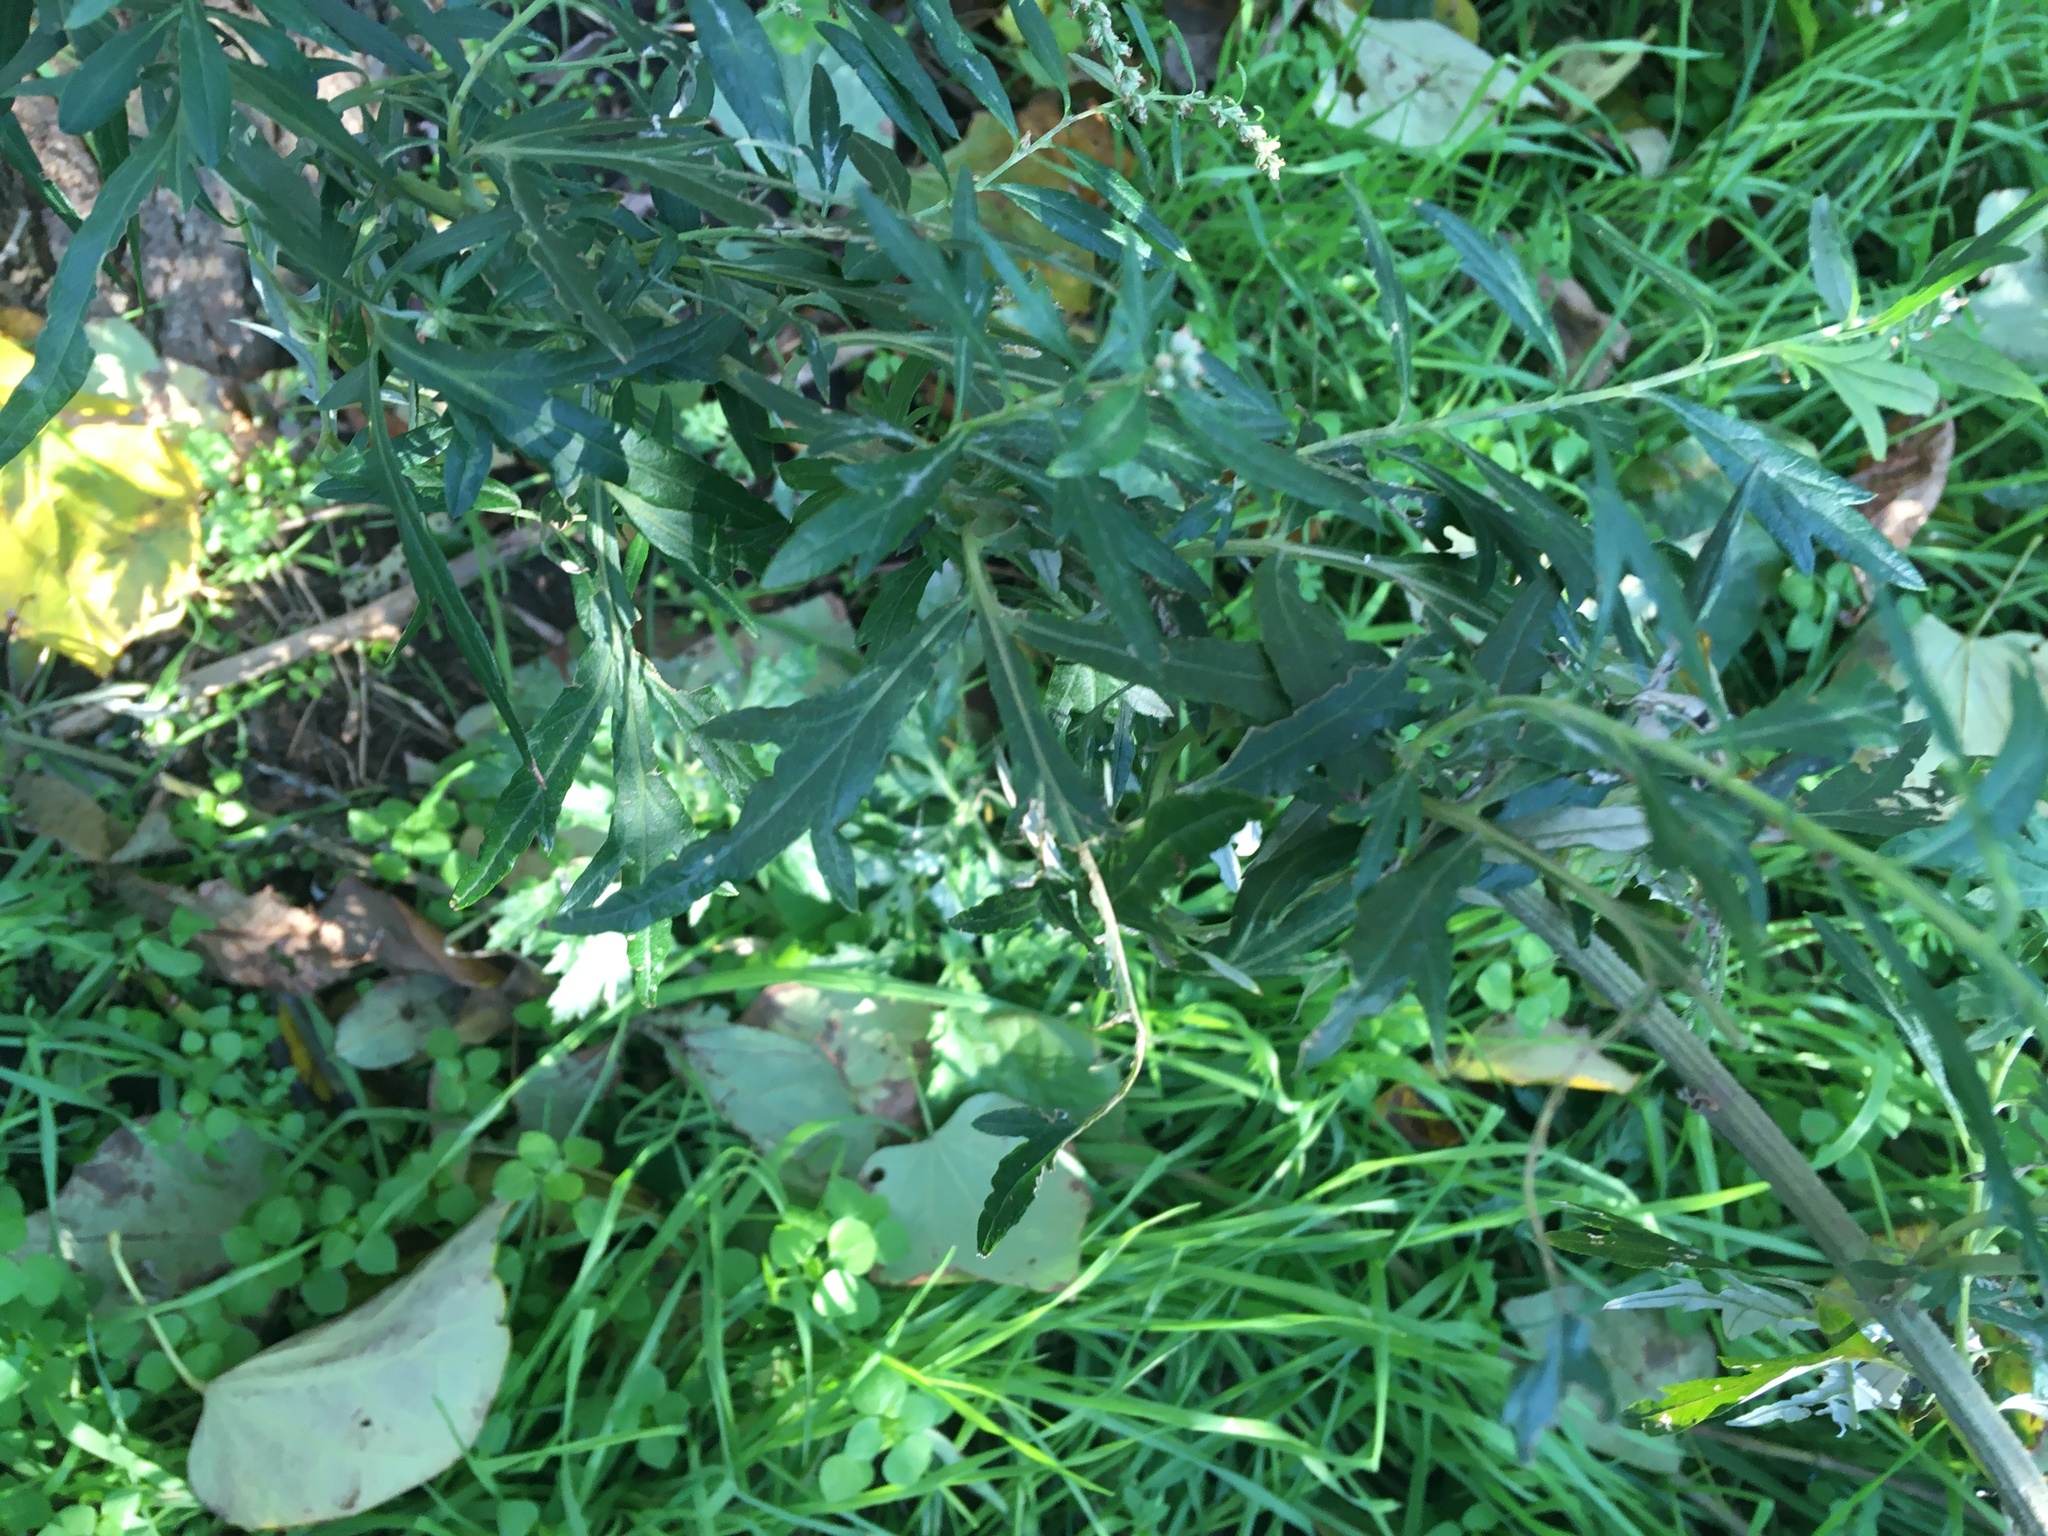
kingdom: Plantae
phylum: Tracheophyta
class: Magnoliopsida
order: Asterales
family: Asteraceae
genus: Artemisia
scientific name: Artemisia vulgaris
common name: Mugwort
